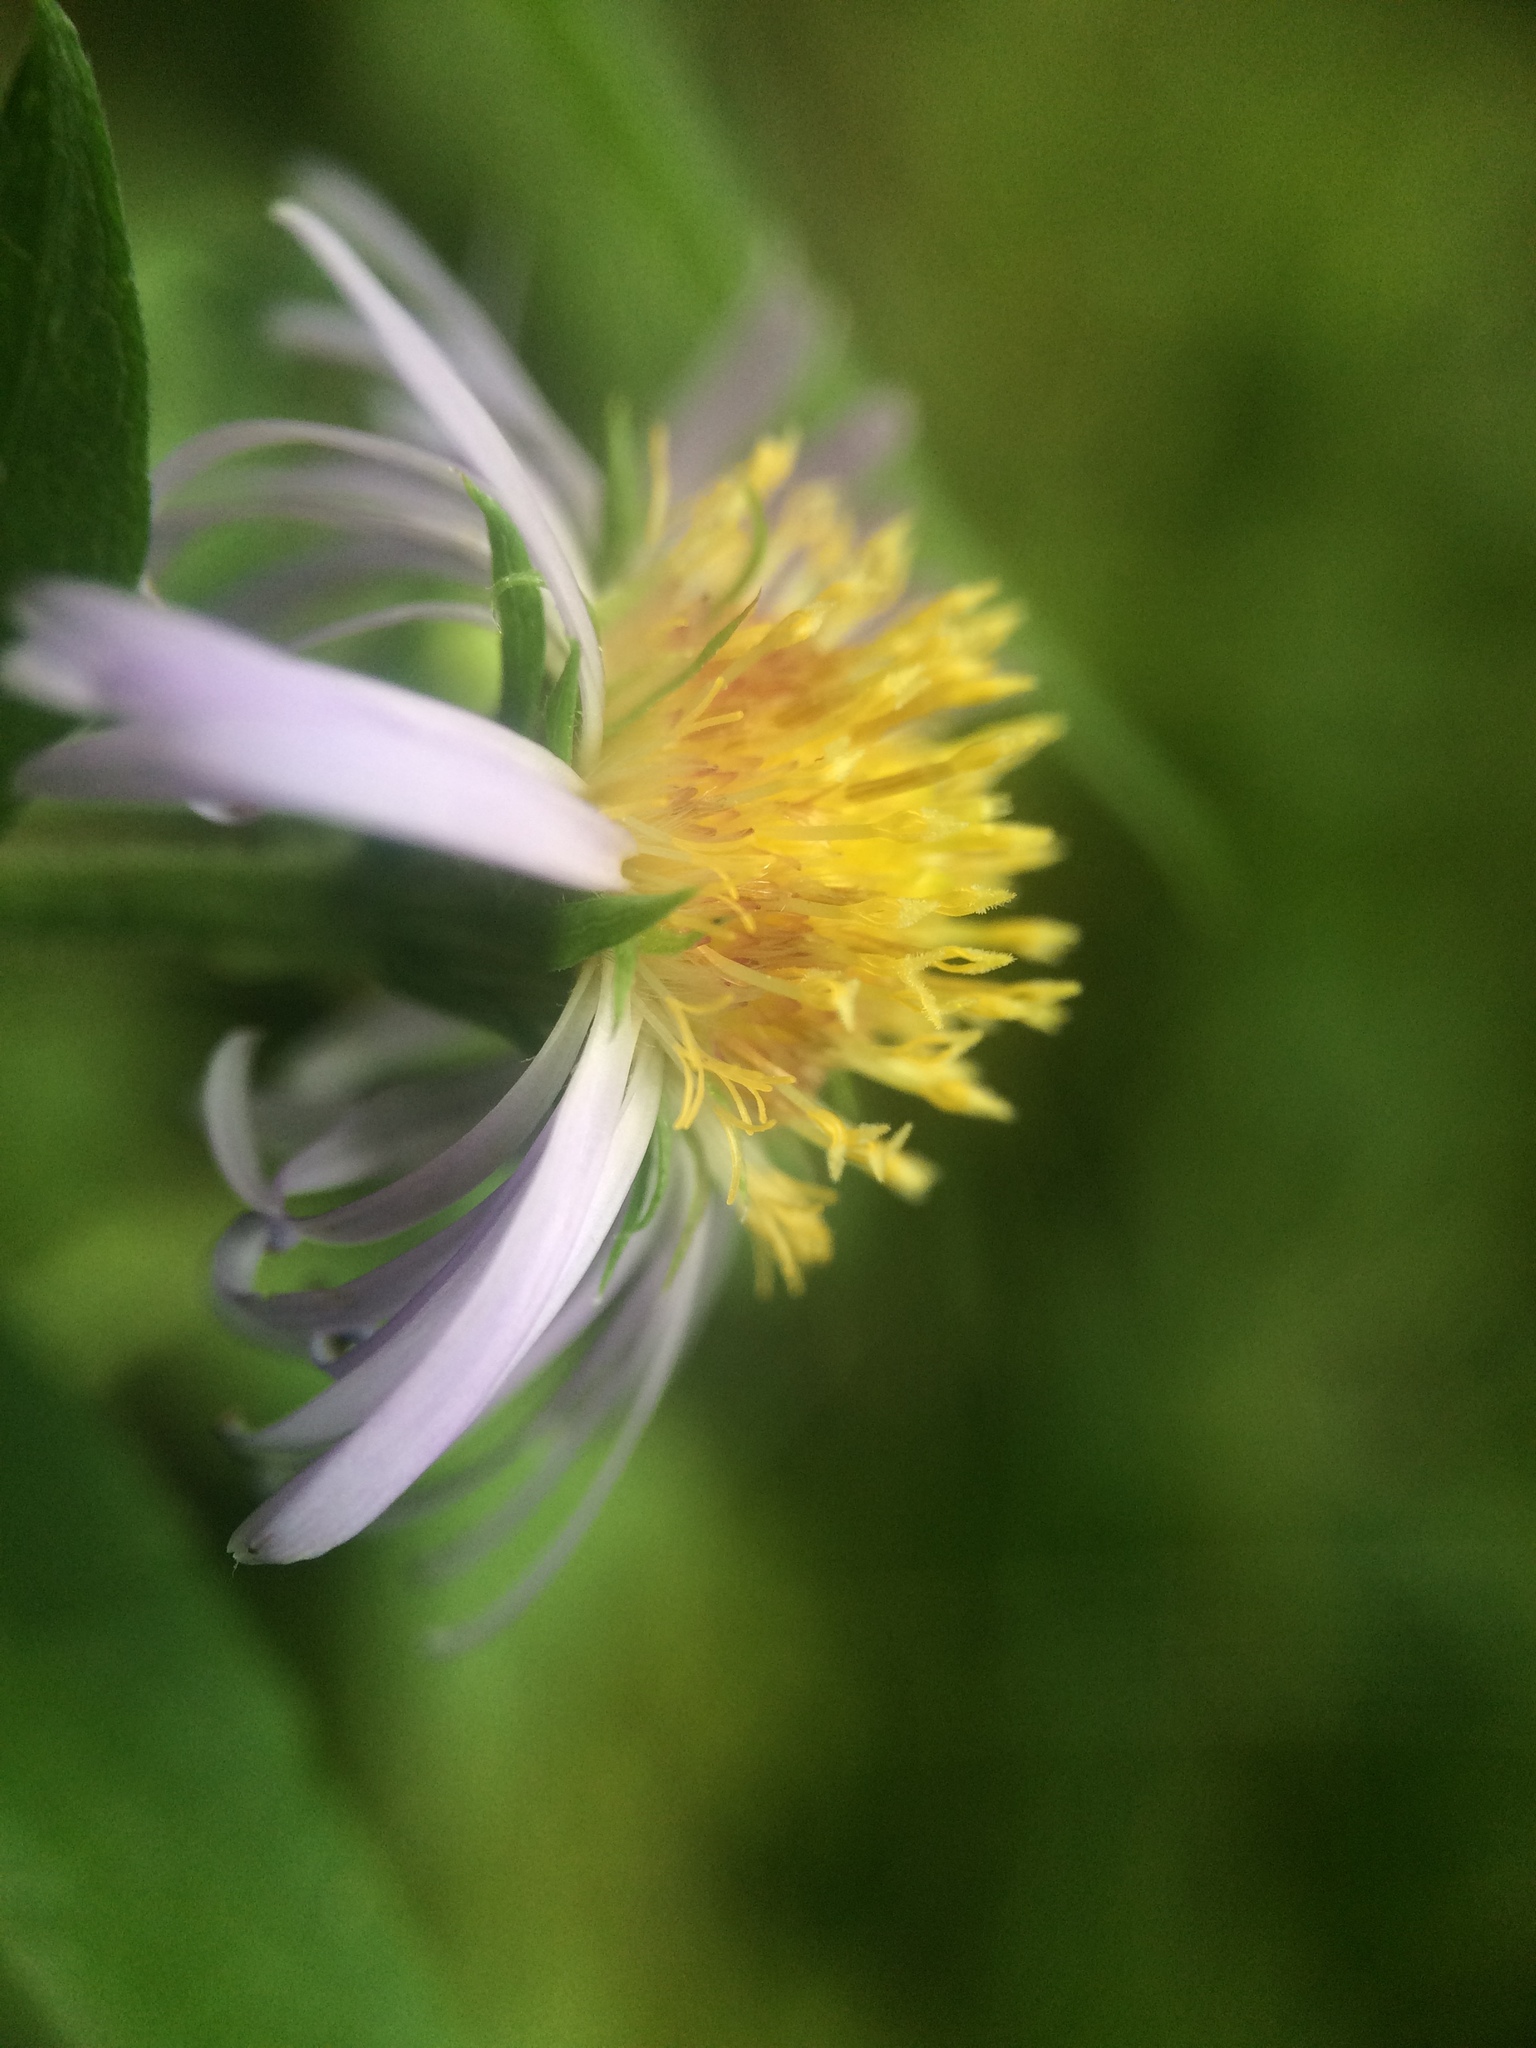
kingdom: Plantae
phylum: Tracheophyta
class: Magnoliopsida
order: Asterales
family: Asteraceae
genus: Symphyotrichum
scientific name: Symphyotrichum puniceum
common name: Bog aster
